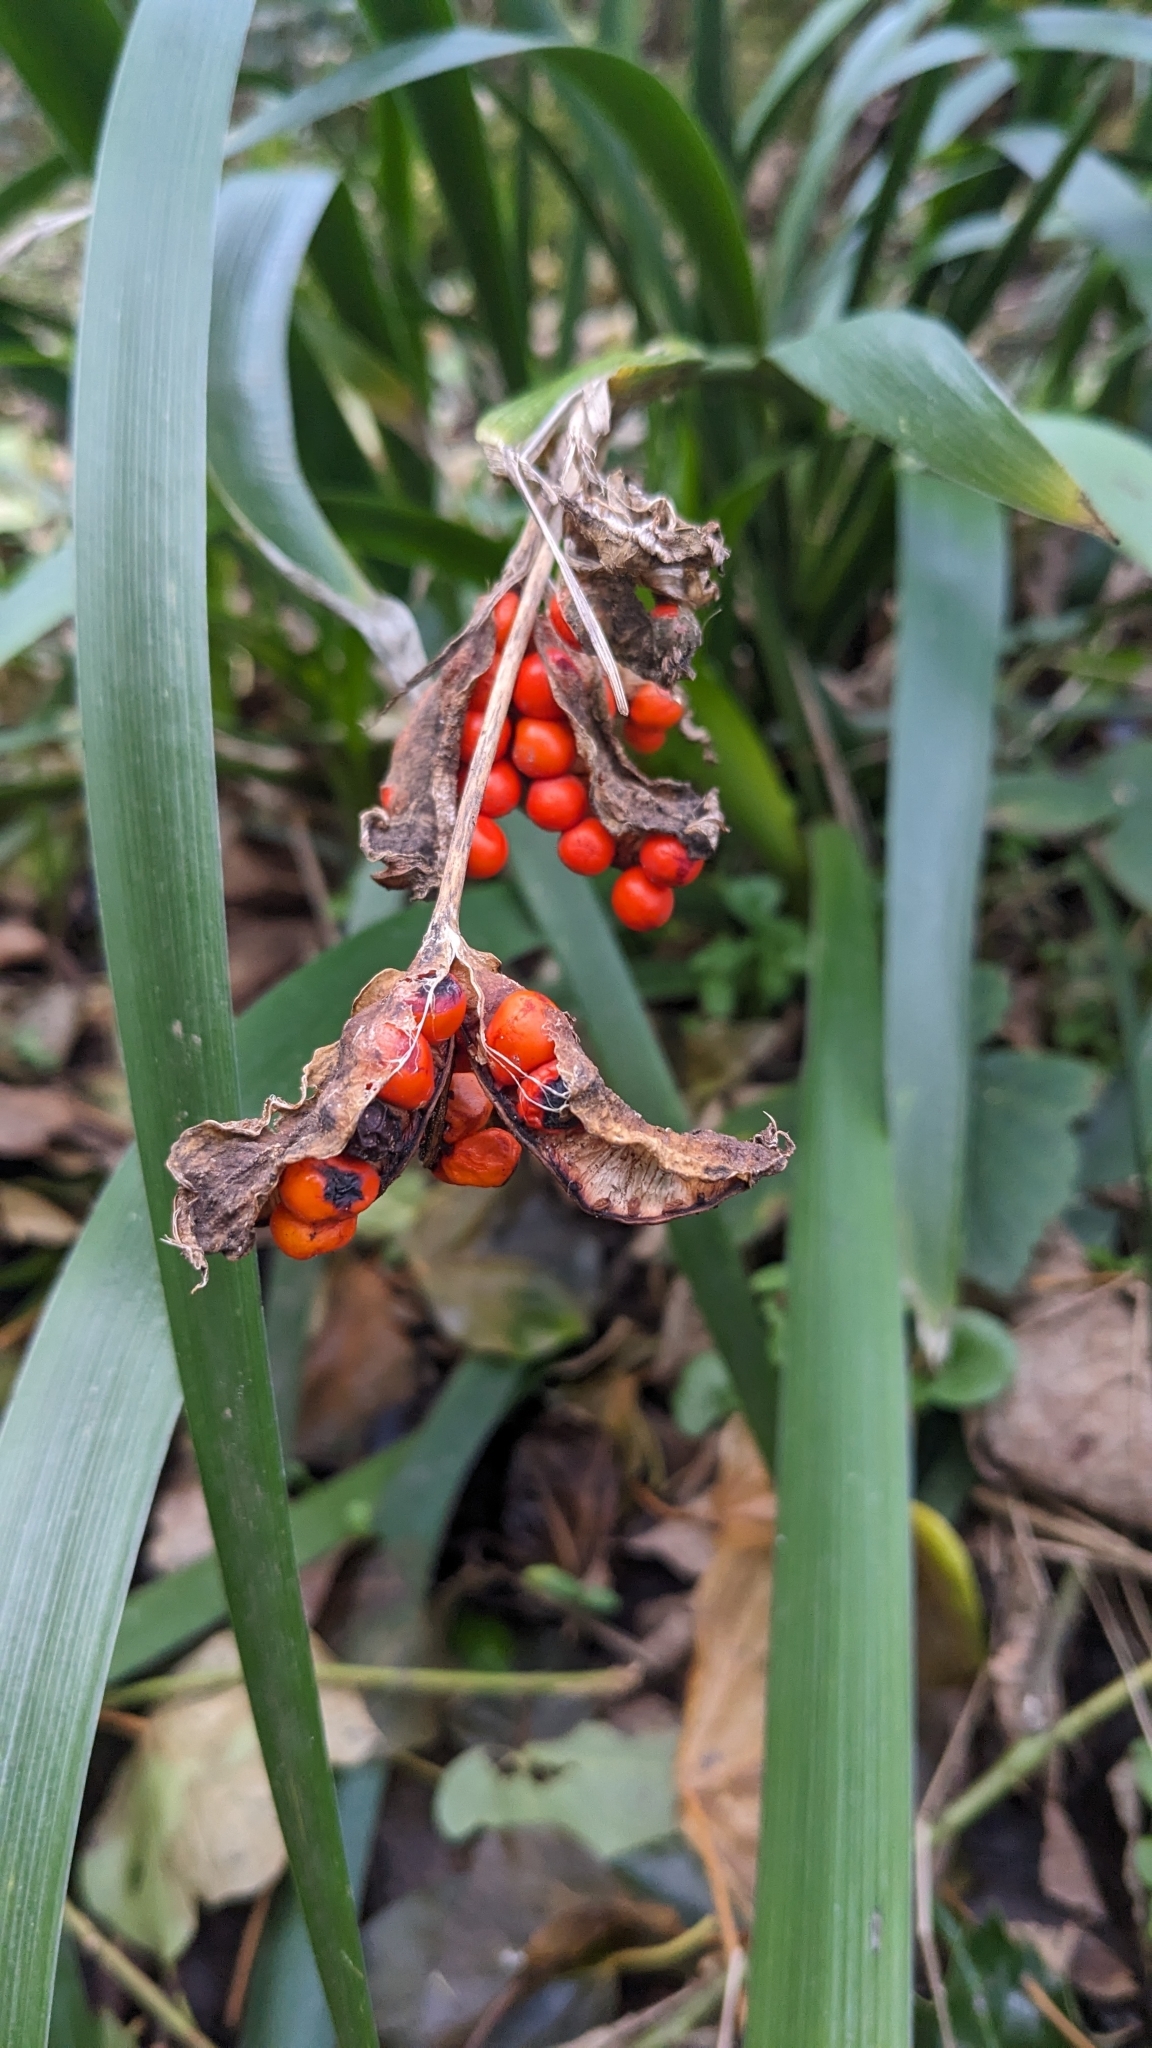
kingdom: Plantae
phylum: Tracheophyta
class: Liliopsida
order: Asparagales
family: Iridaceae
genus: Iris
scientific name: Iris foetidissima
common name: Stinking iris
